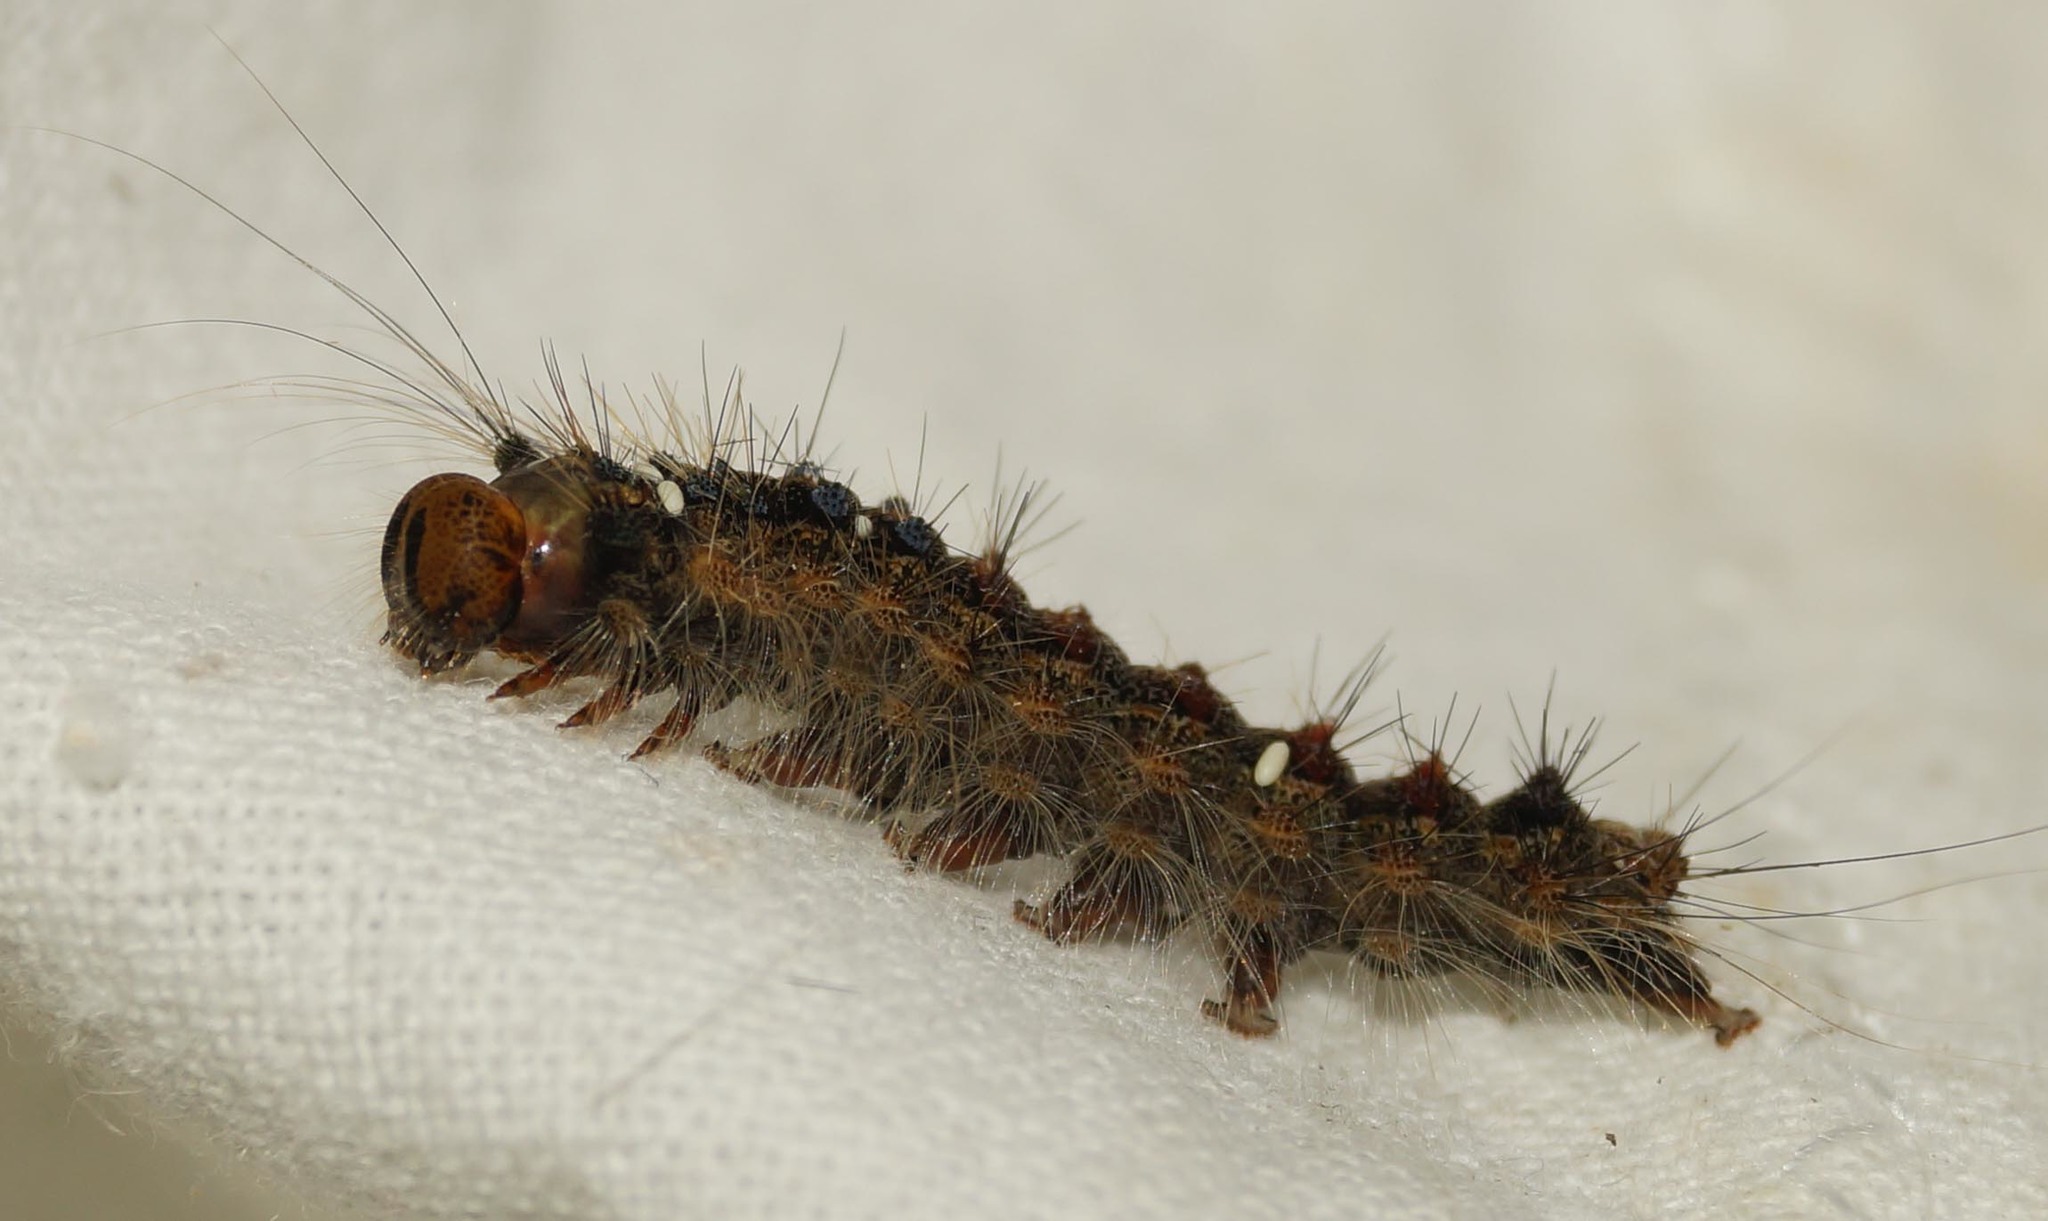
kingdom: Animalia
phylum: Arthropoda
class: Insecta
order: Lepidoptera
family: Erebidae
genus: Lymantria
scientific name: Lymantria dispar
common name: Gypsy moth
